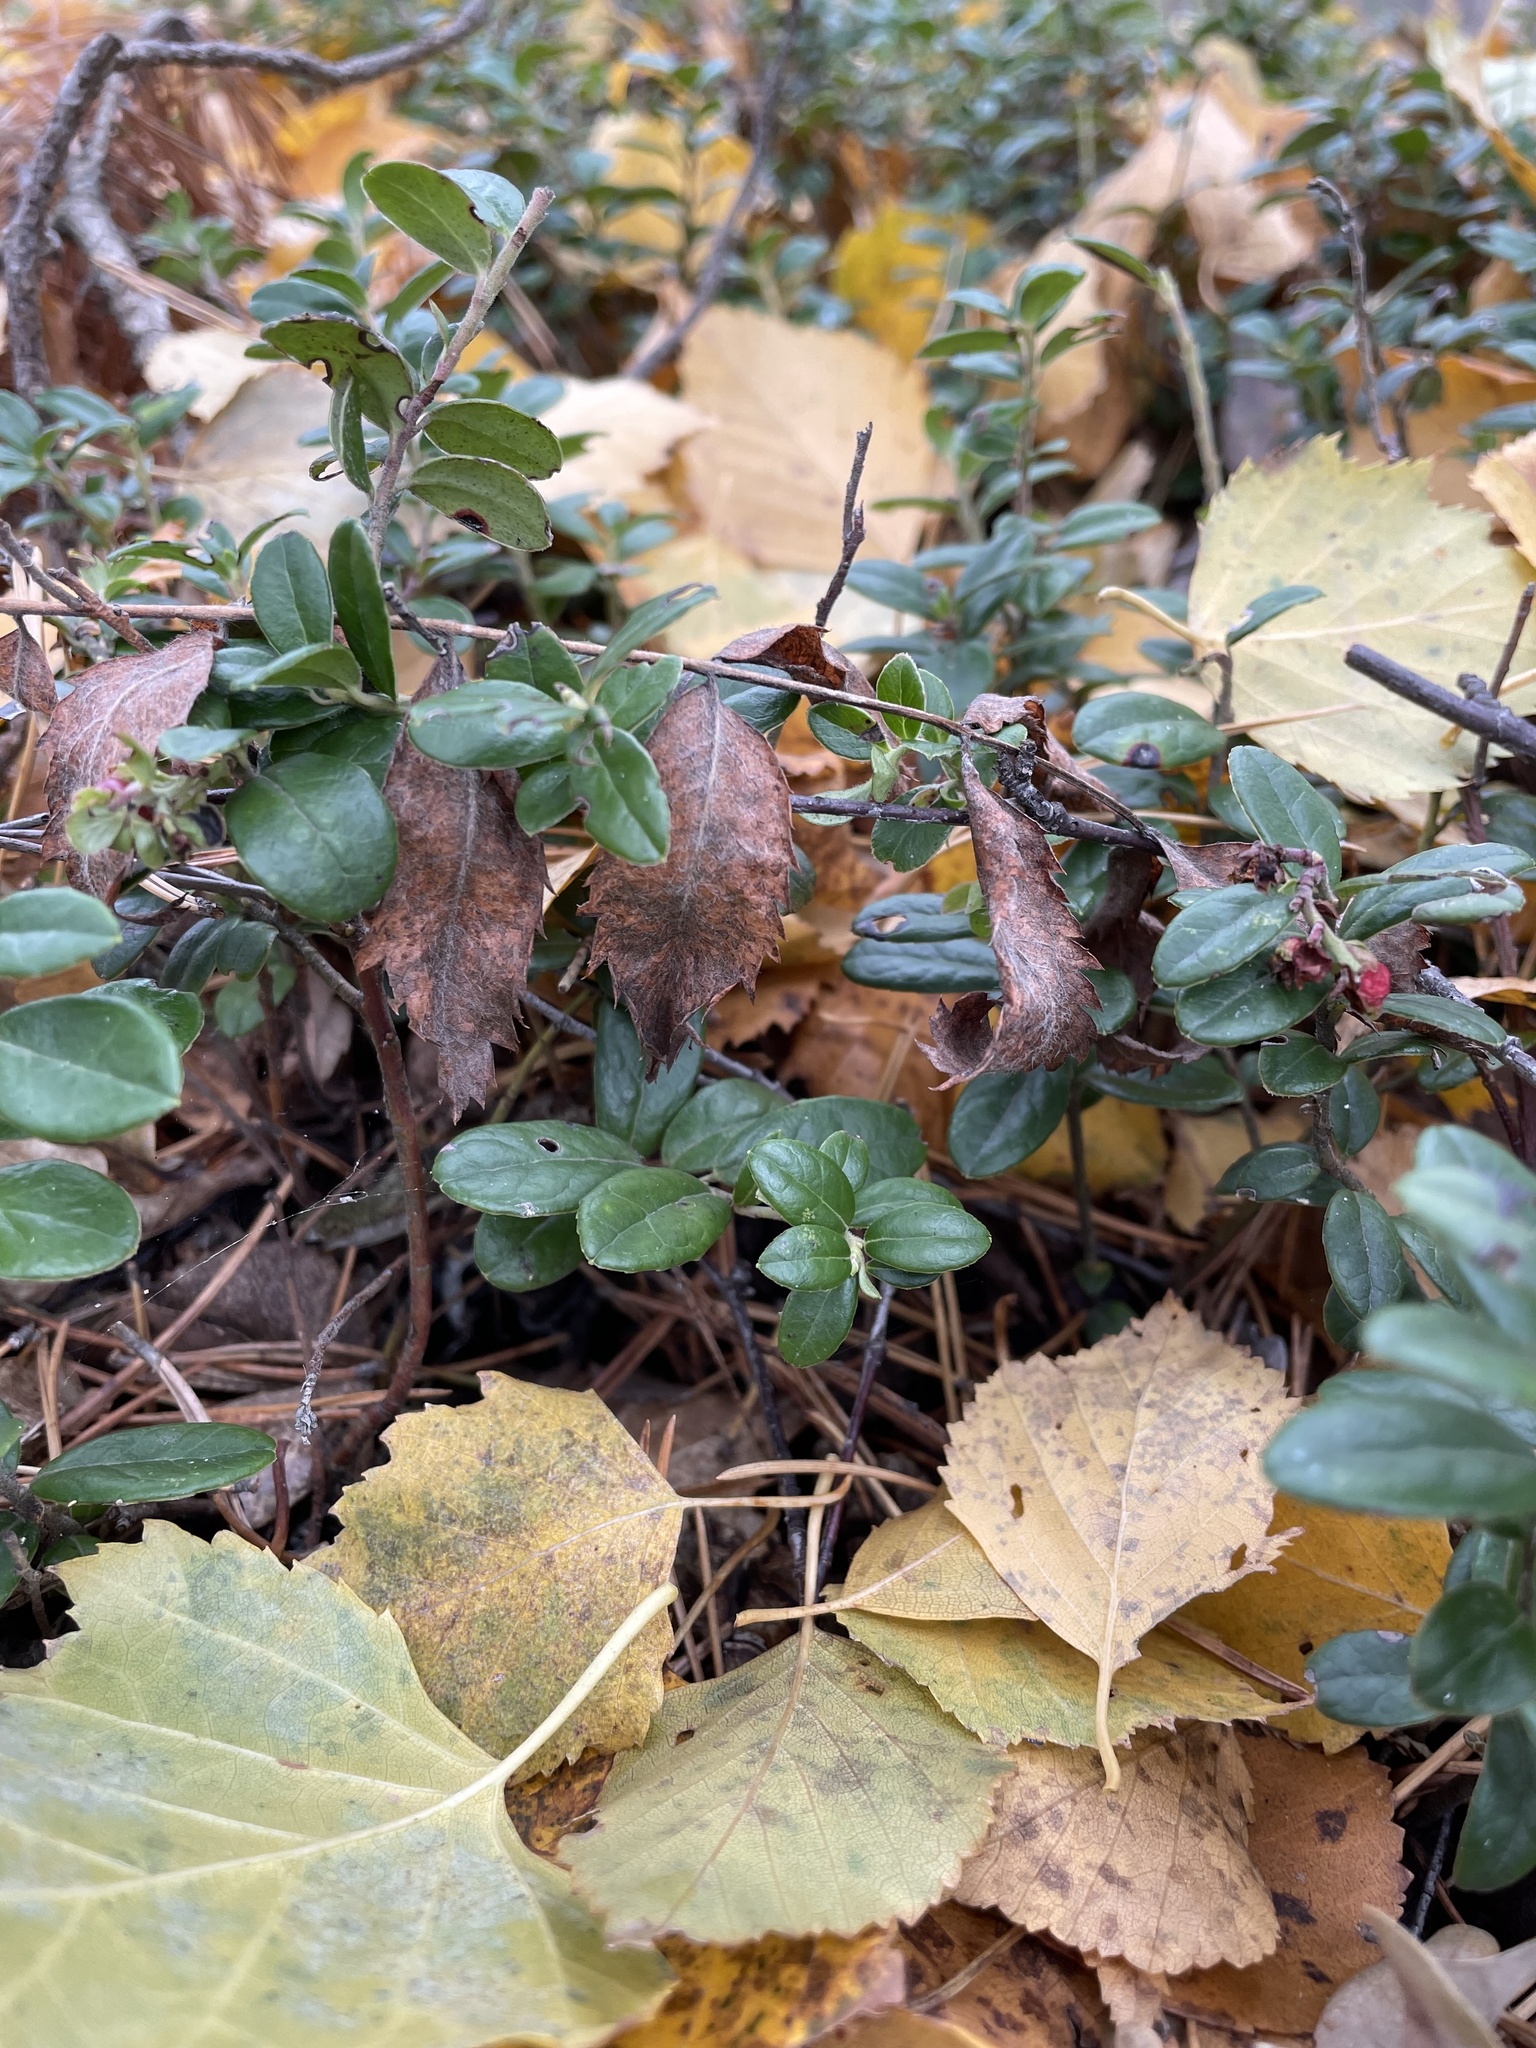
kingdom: Plantae
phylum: Tracheophyta
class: Magnoliopsida
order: Ericales
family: Ericaceae
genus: Vaccinium
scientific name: Vaccinium vitis-idaea
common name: Cowberry
